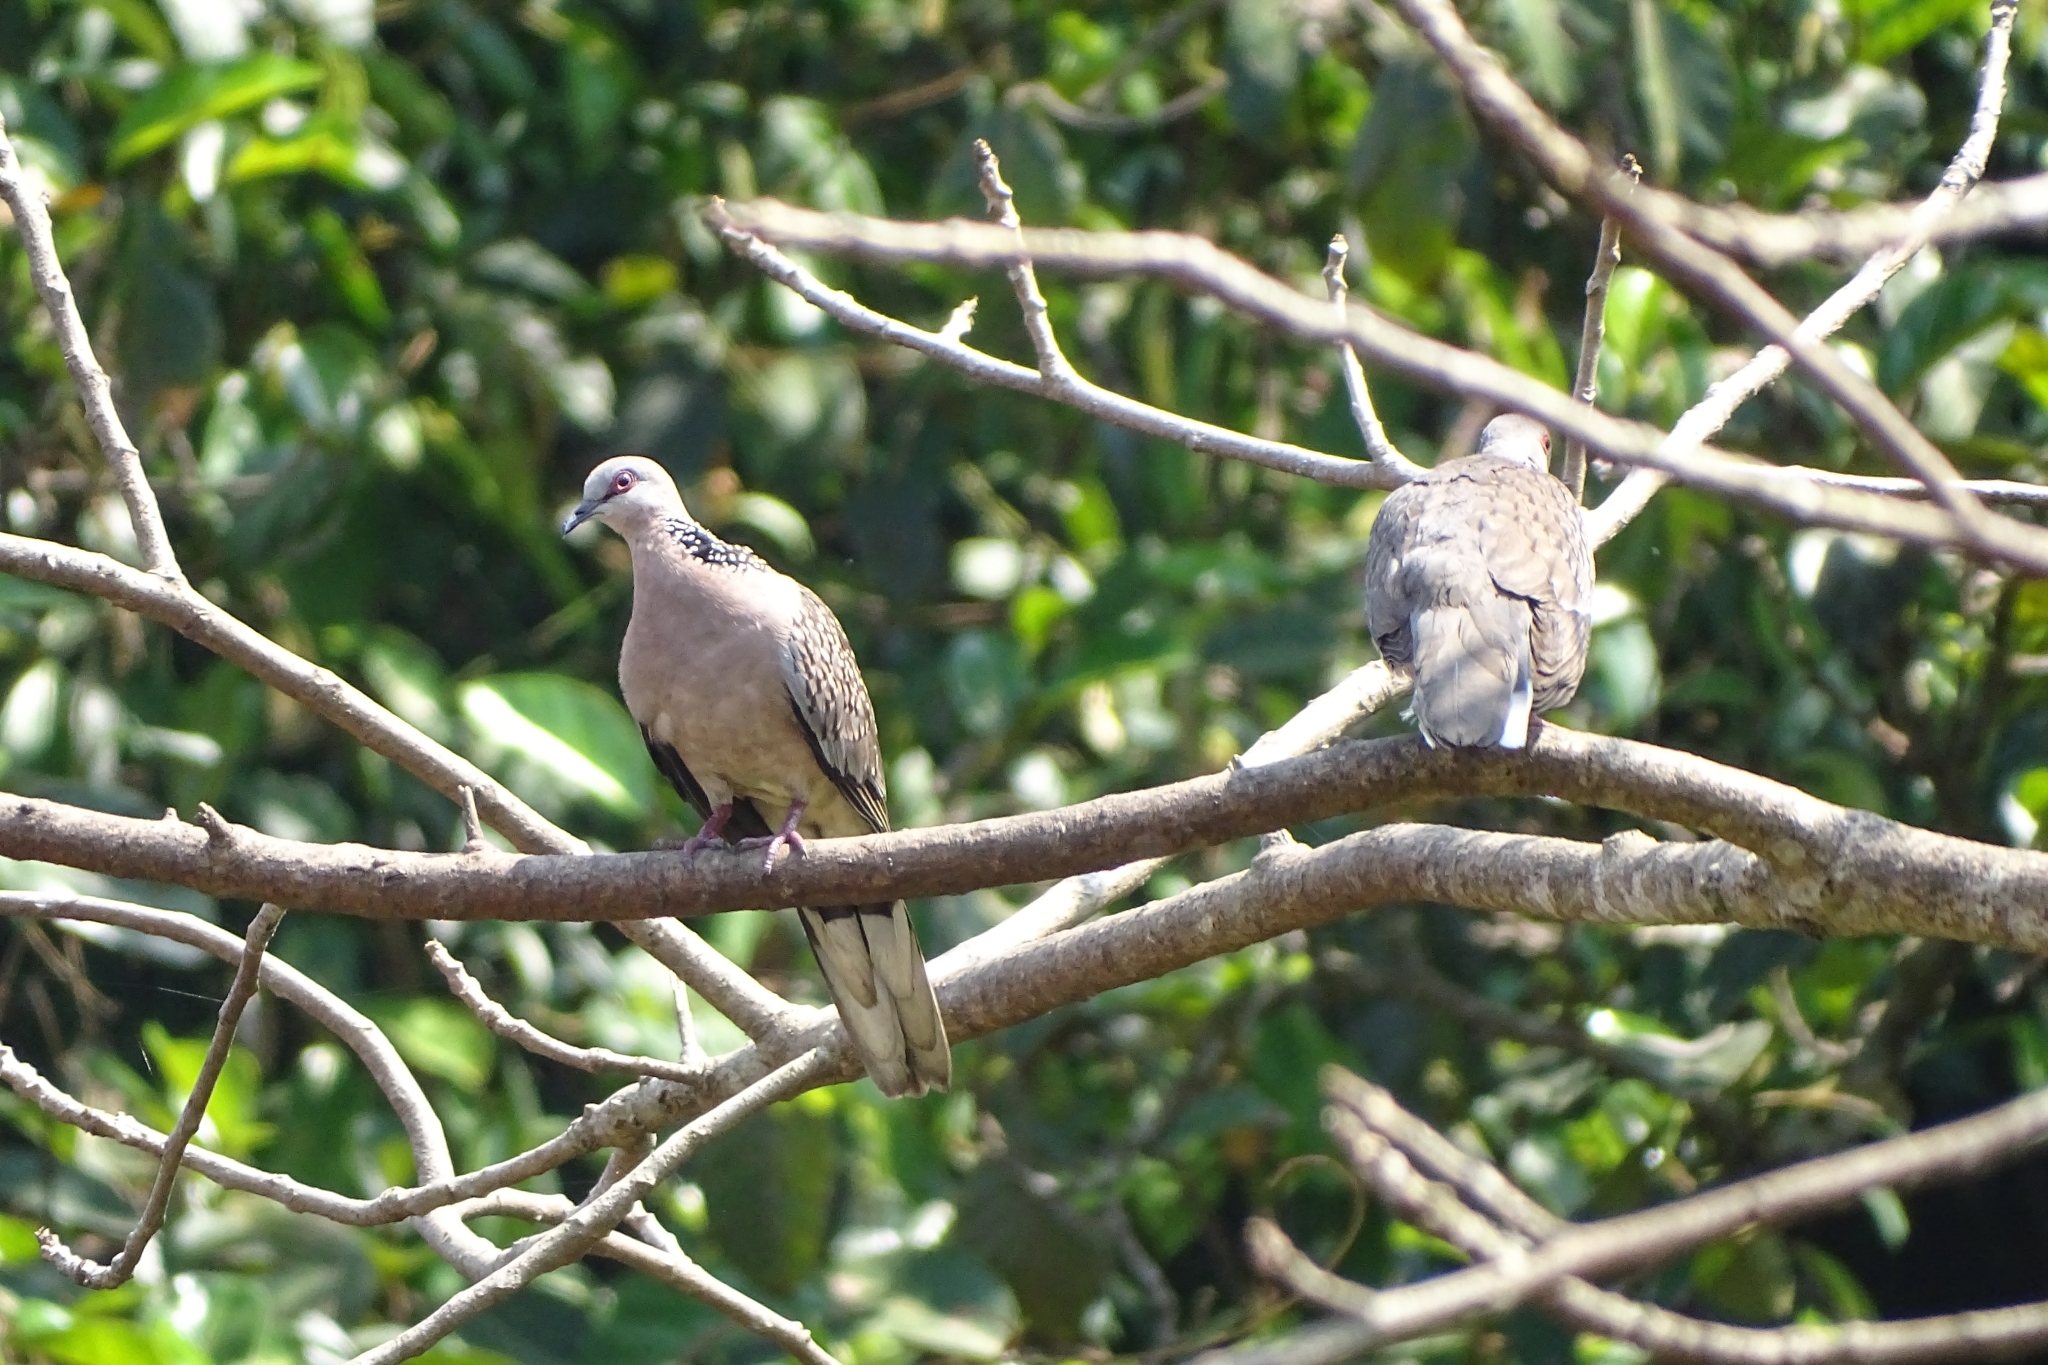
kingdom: Animalia
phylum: Chordata
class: Aves
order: Columbiformes
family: Columbidae
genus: Spilopelia
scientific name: Spilopelia chinensis
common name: Spotted dove
